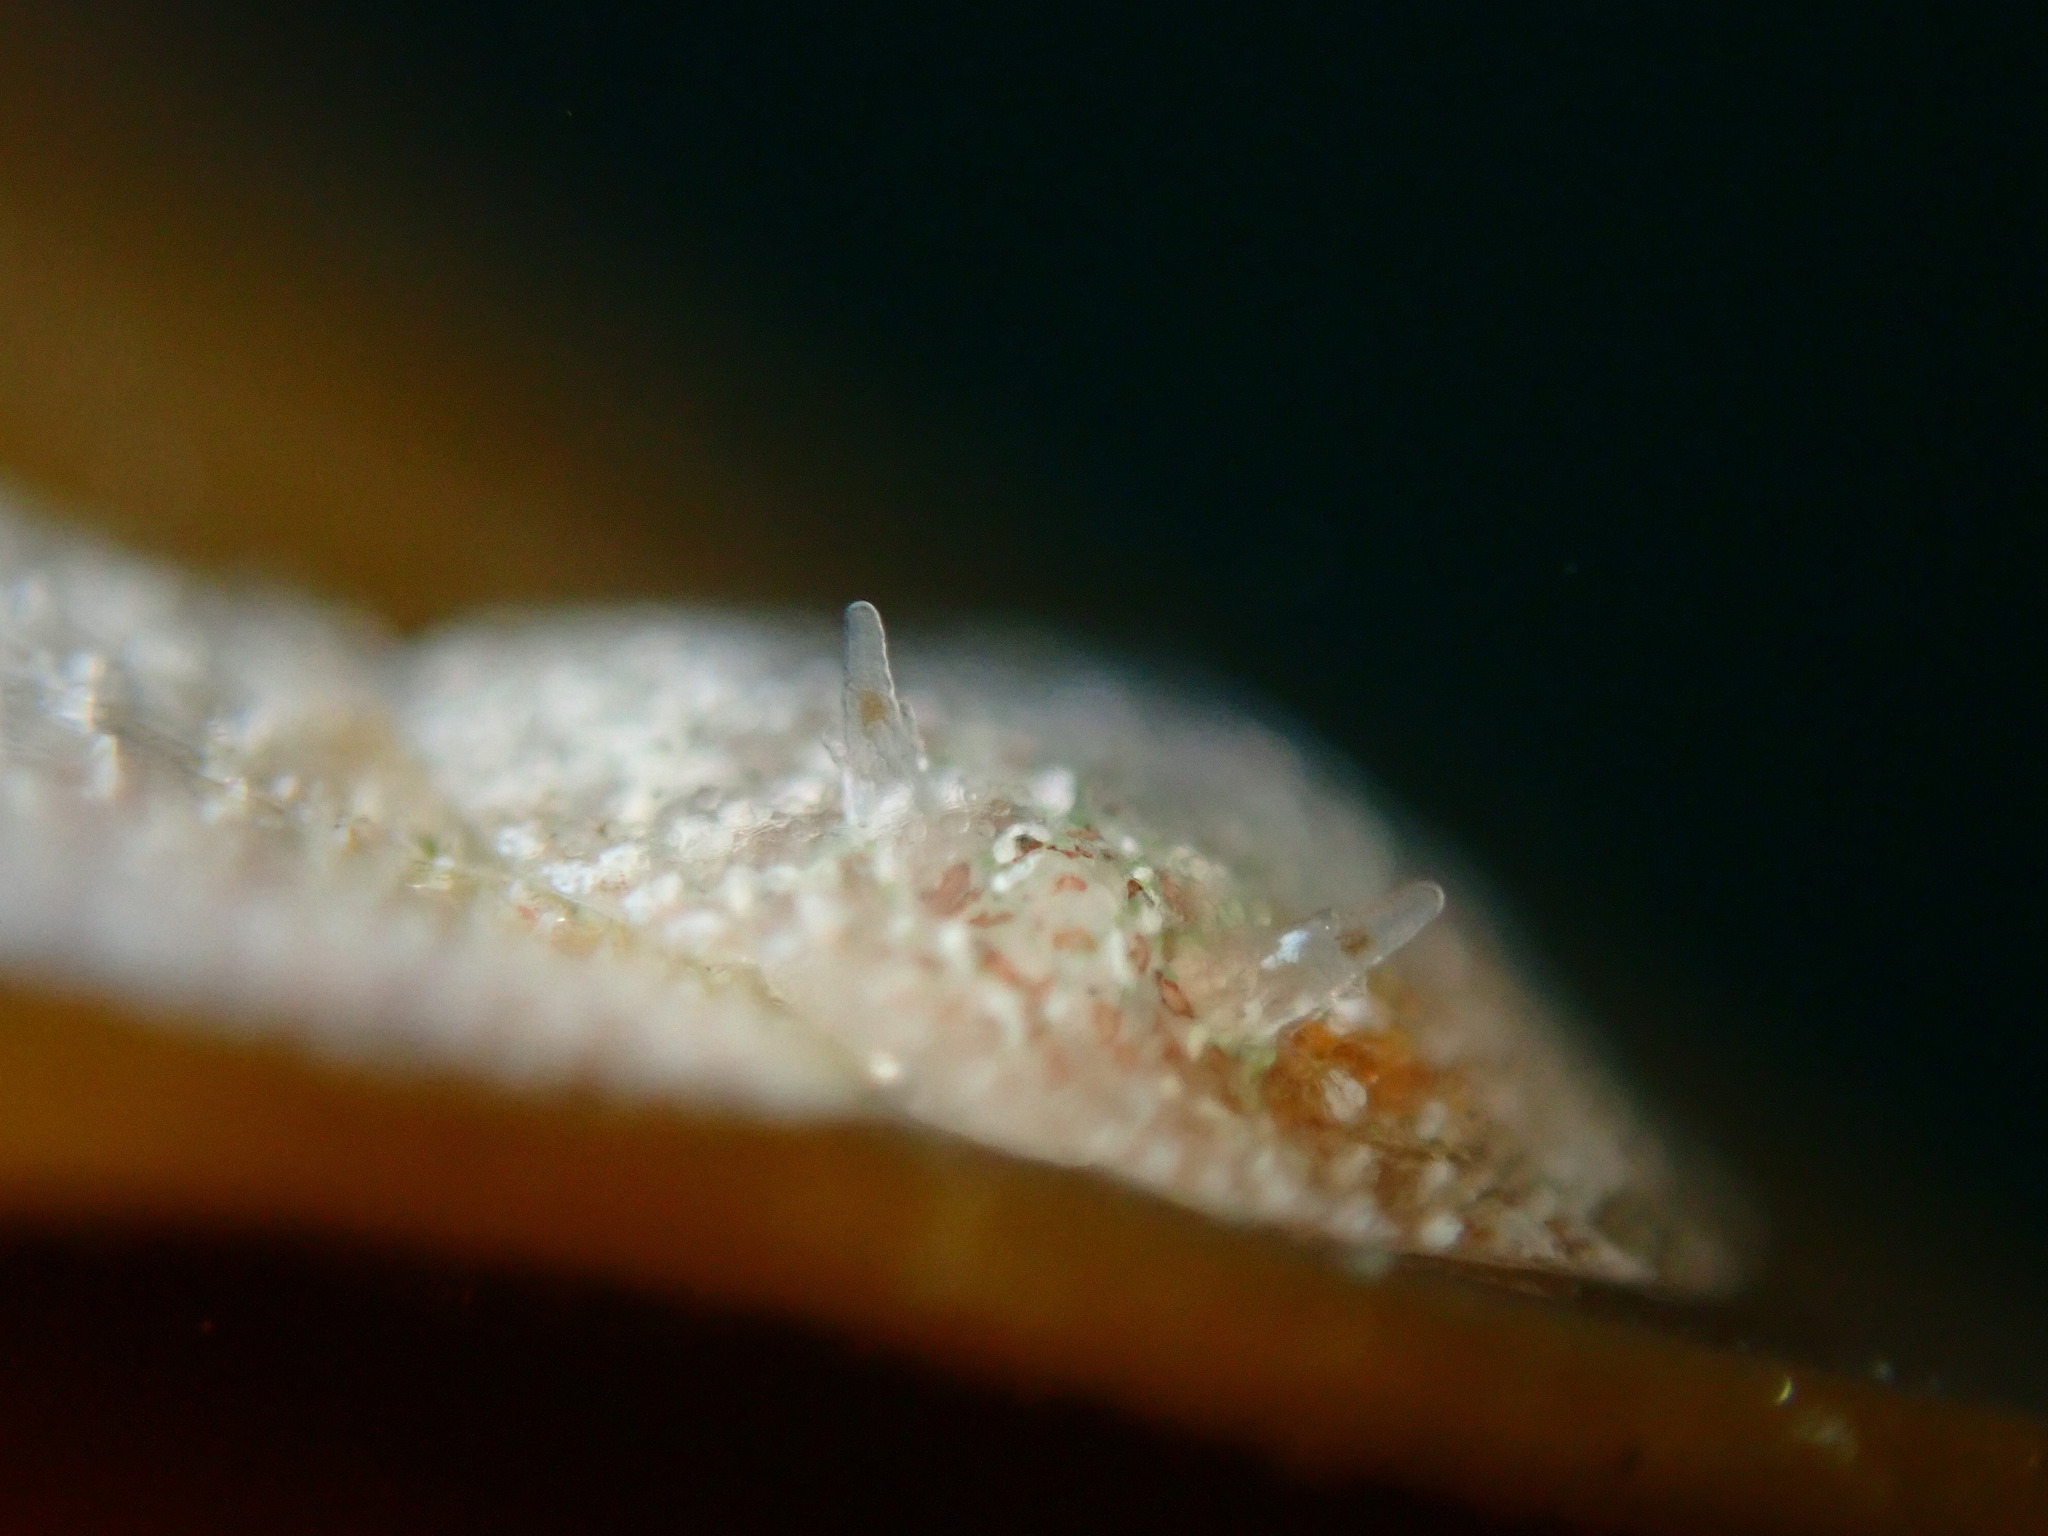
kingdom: Animalia
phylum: Mollusca
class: Gastropoda
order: Nudibranchia
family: Corambidae
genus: Corambe
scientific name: Corambe steinbergae
